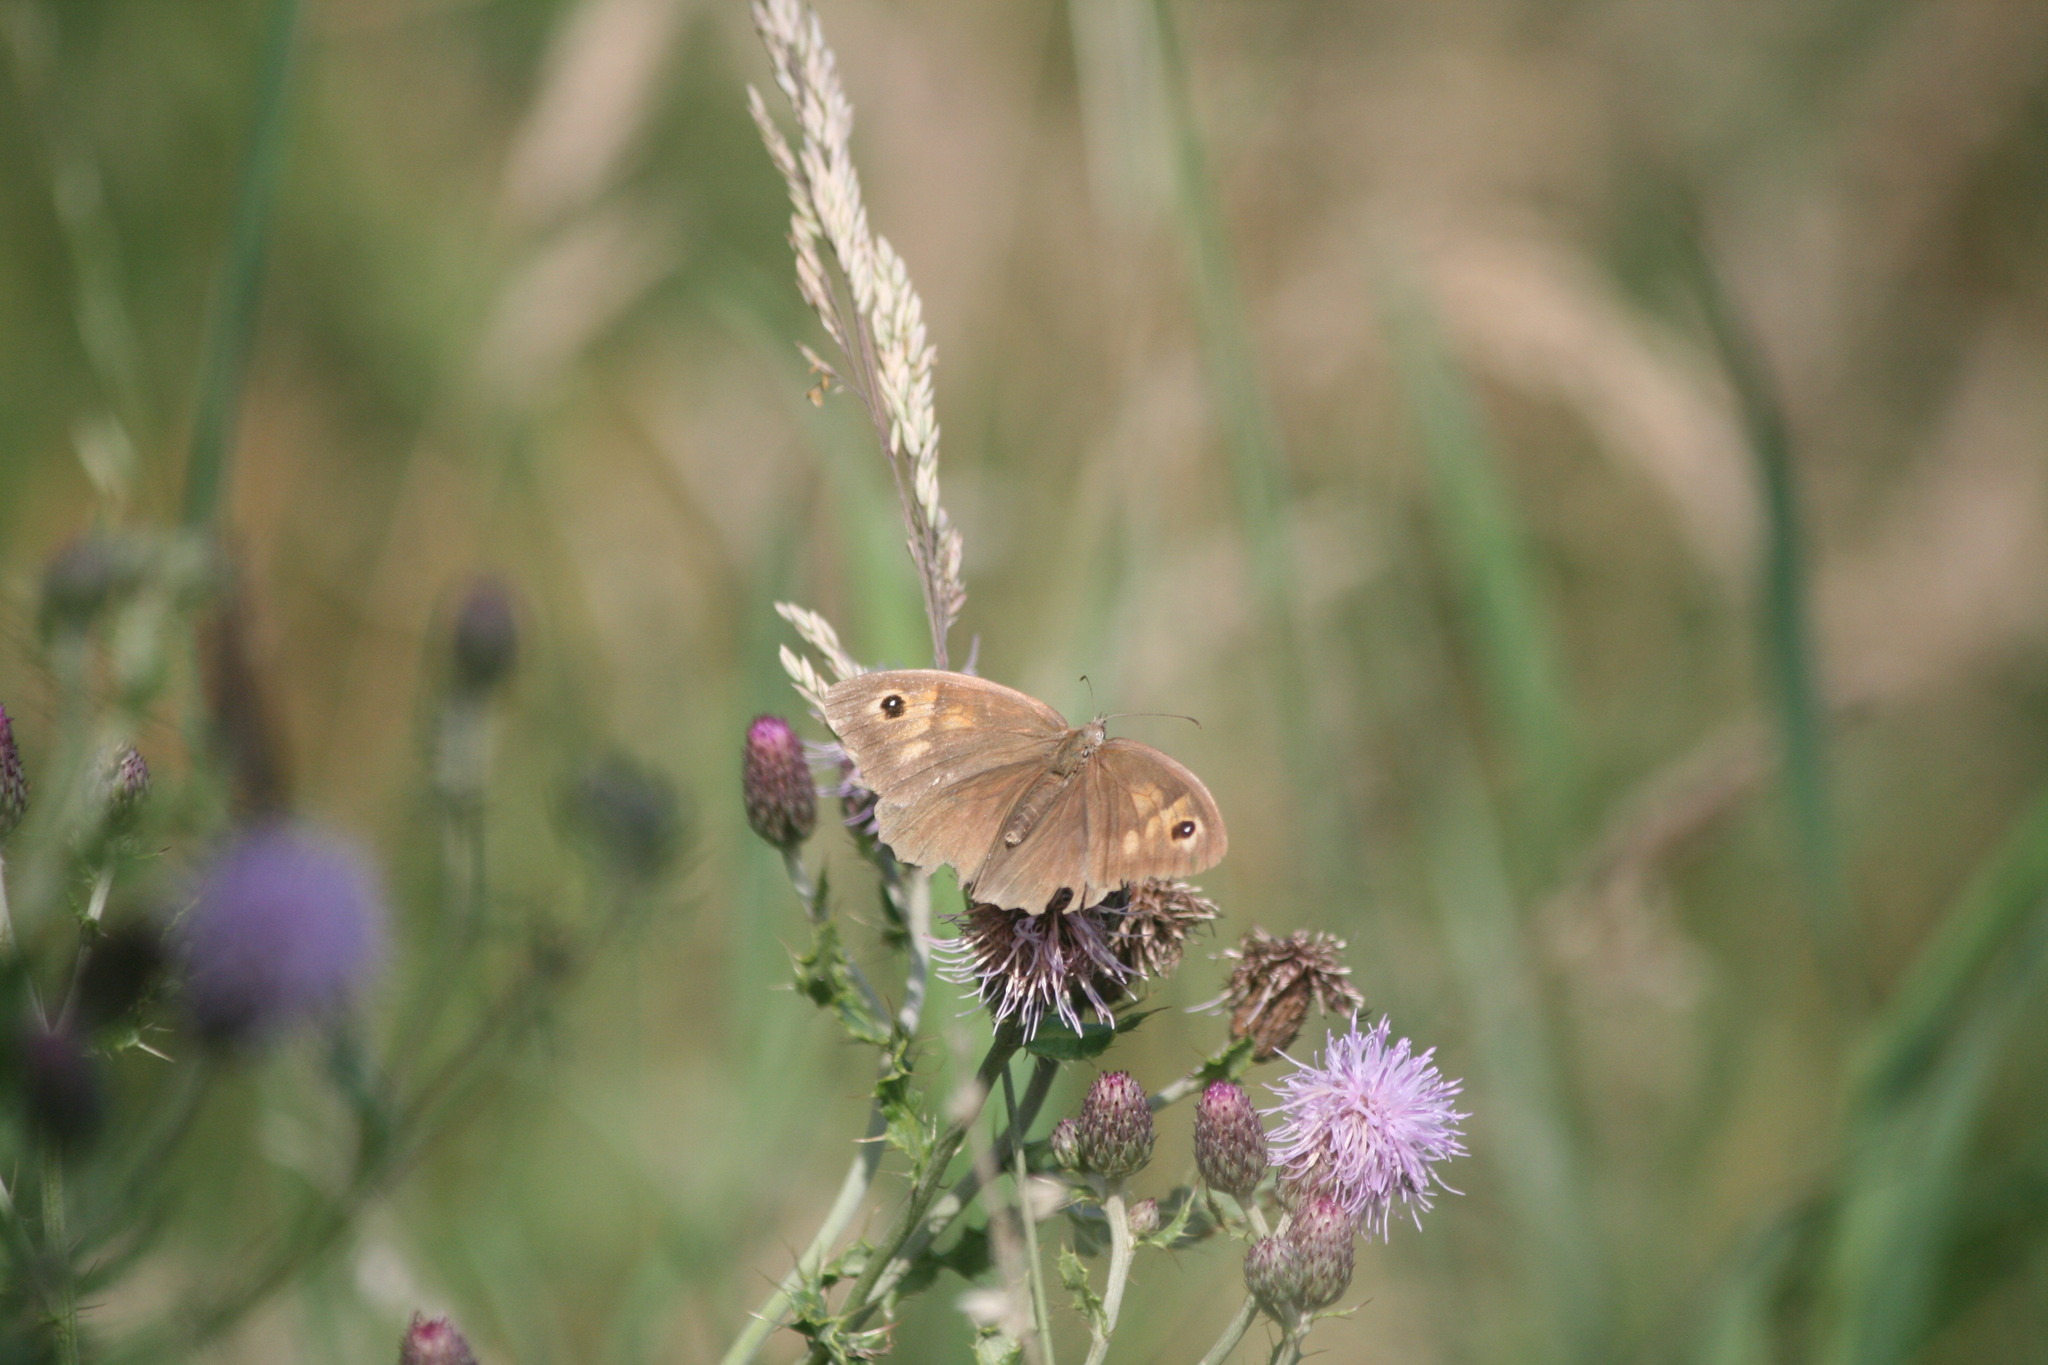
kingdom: Animalia
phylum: Arthropoda
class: Insecta
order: Lepidoptera
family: Nymphalidae
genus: Maniola
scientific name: Maniola jurtina
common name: Meadow brown
